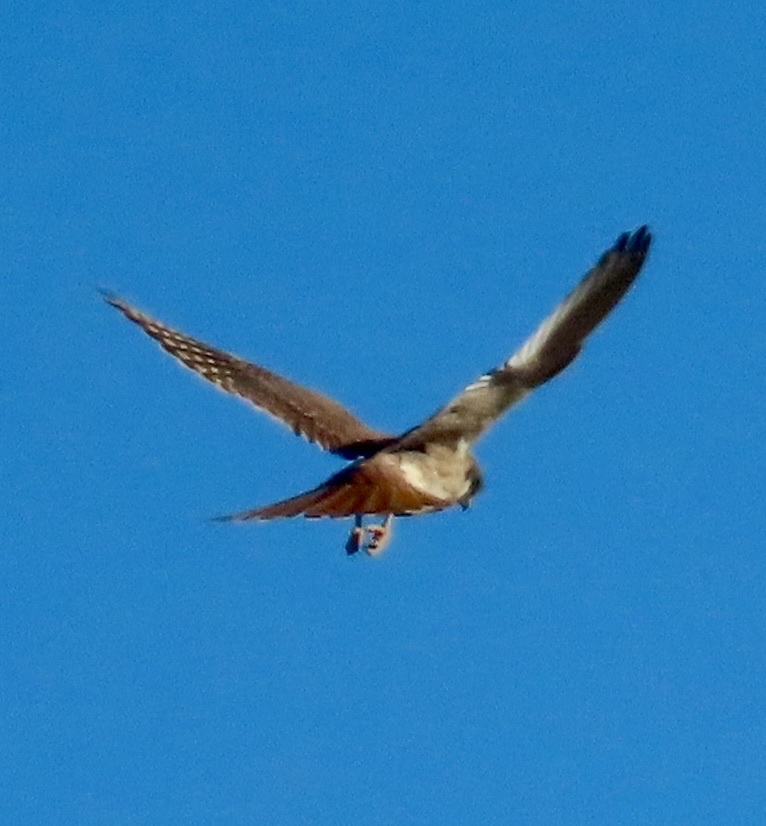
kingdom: Animalia
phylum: Chordata
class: Aves
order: Falconiformes
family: Falconidae
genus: Falco
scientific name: Falco sparverius
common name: American kestrel
